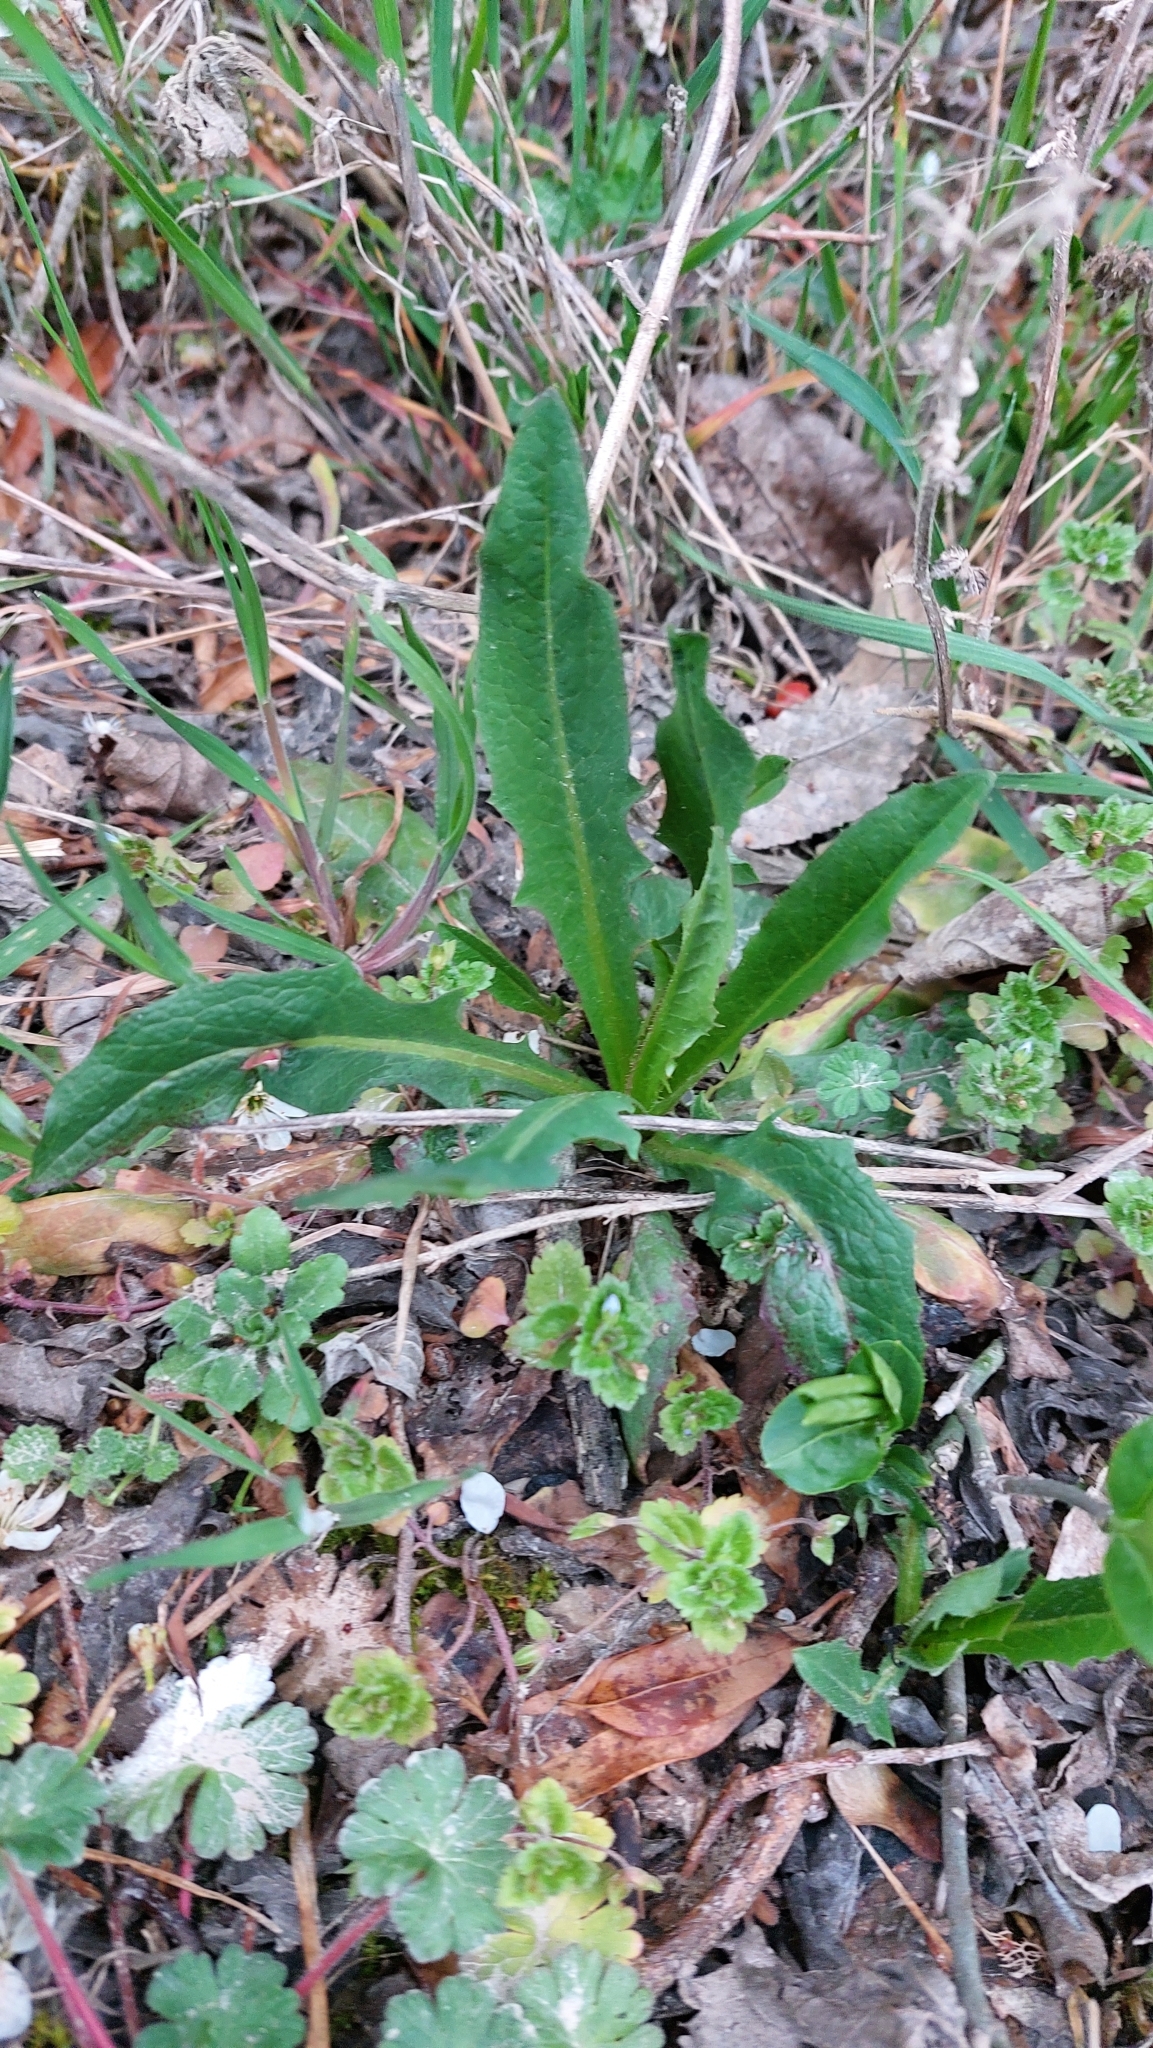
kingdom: Plantae
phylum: Tracheophyta
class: Magnoliopsida
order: Asterales
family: Asteraceae
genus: Lactuca
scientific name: Lactuca serriola
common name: Prickly lettuce
